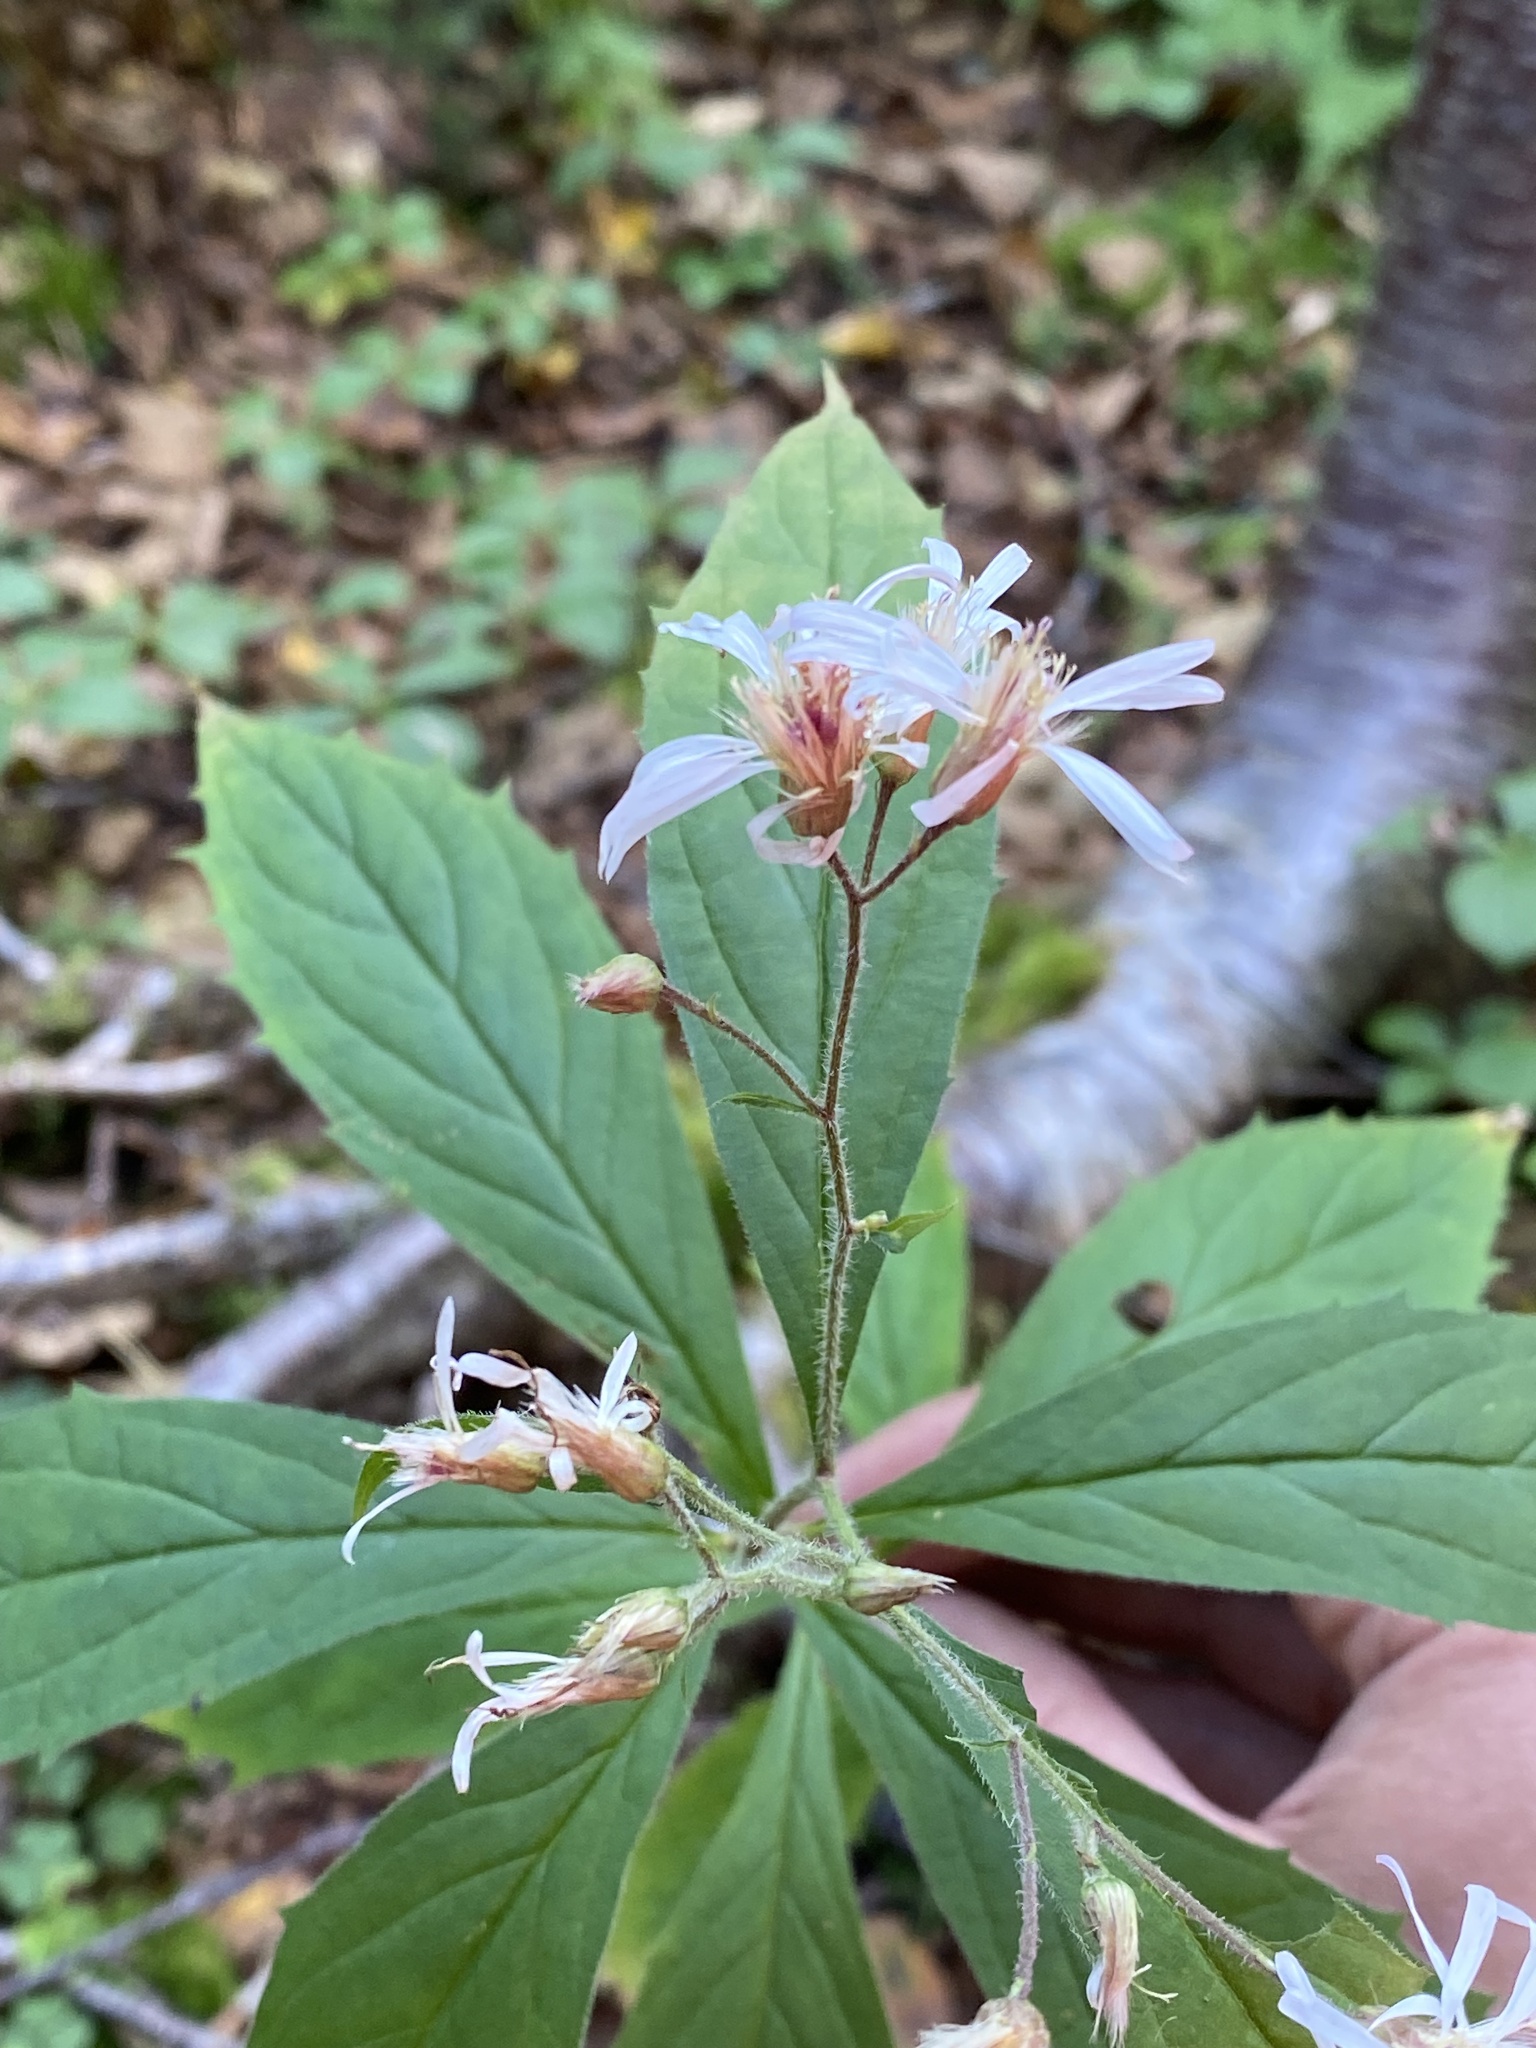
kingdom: Plantae
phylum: Tracheophyta
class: Magnoliopsida
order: Asterales
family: Asteraceae
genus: Oclemena
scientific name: Oclemena acuminata
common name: Mountain aster
